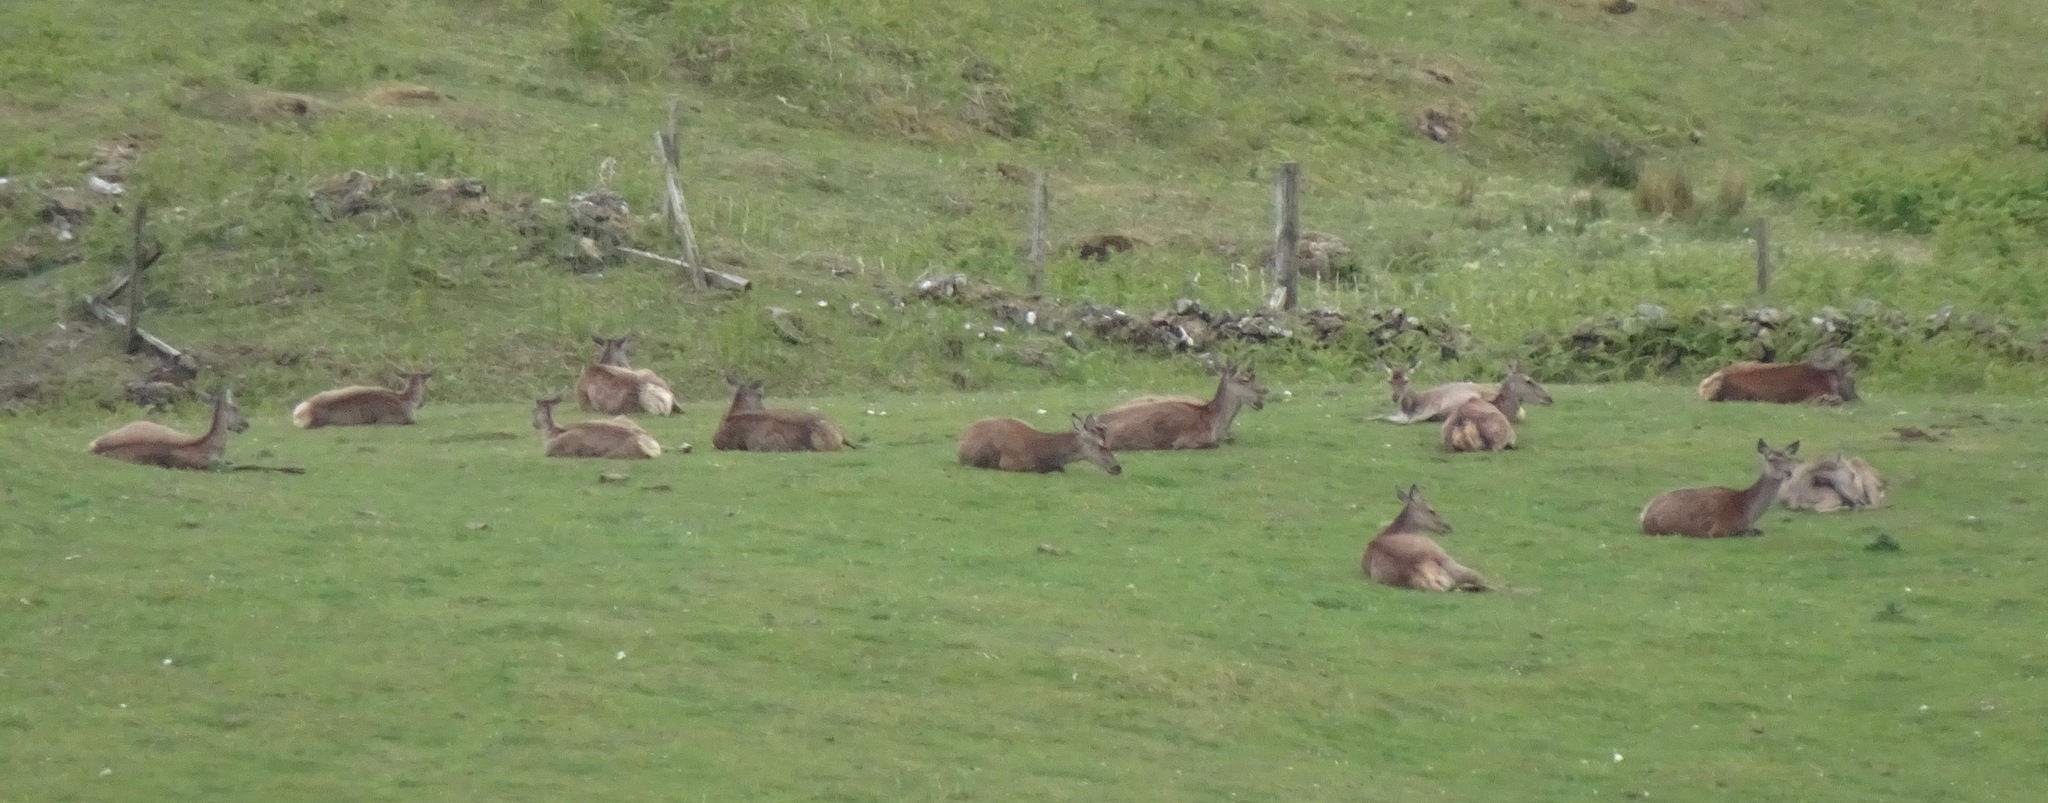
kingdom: Animalia
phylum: Chordata
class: Mammalia
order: Artiodactyla
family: Cervidae
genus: Cervus
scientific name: Cervus elaphus
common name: Red deer
